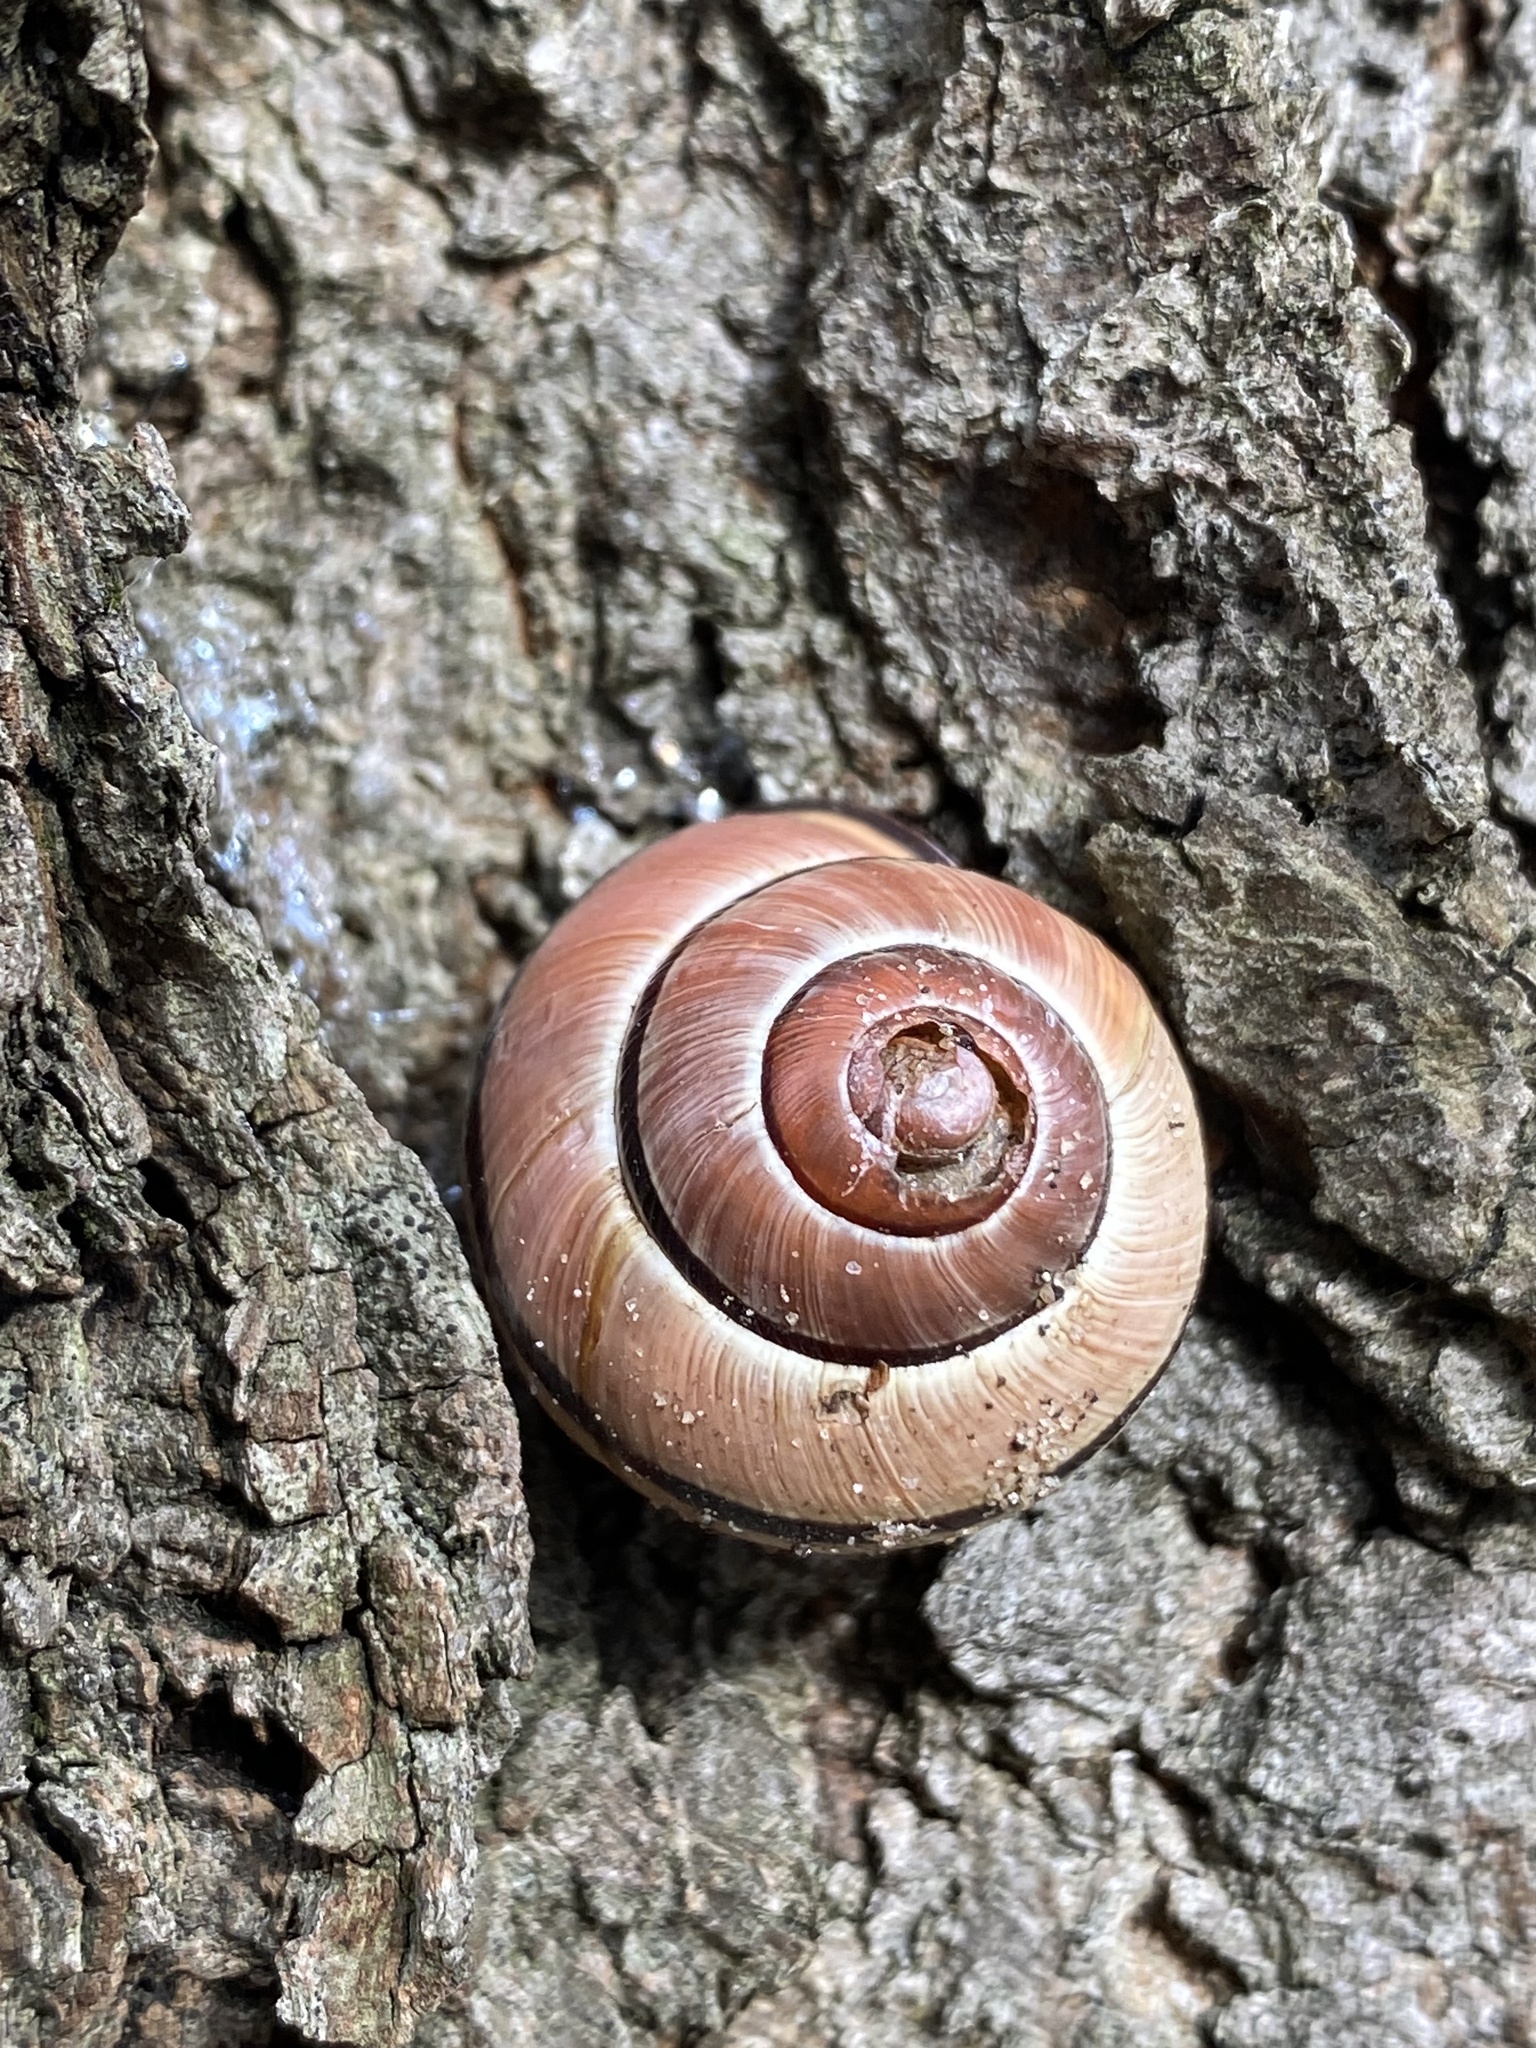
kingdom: Animalia
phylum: Mollusca
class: Gastropoda
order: Stylommatophora
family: Helicidae
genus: Cepaea
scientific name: Cepaea nemoralis
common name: Grovesnail
